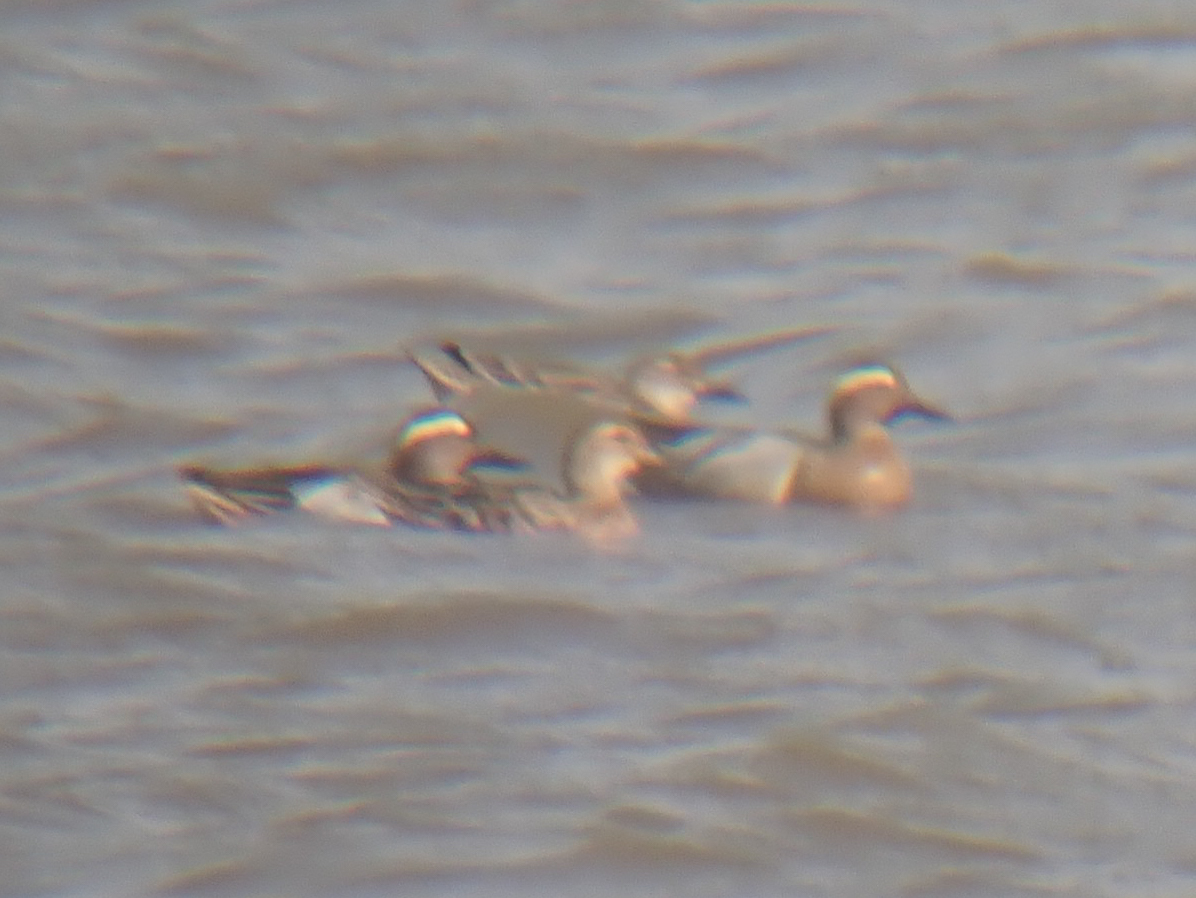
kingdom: Animalia
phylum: Chordata
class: Aves
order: Anseriformes
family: Anatidae
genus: Spatula
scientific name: Spatula querquedula
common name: Garganey
